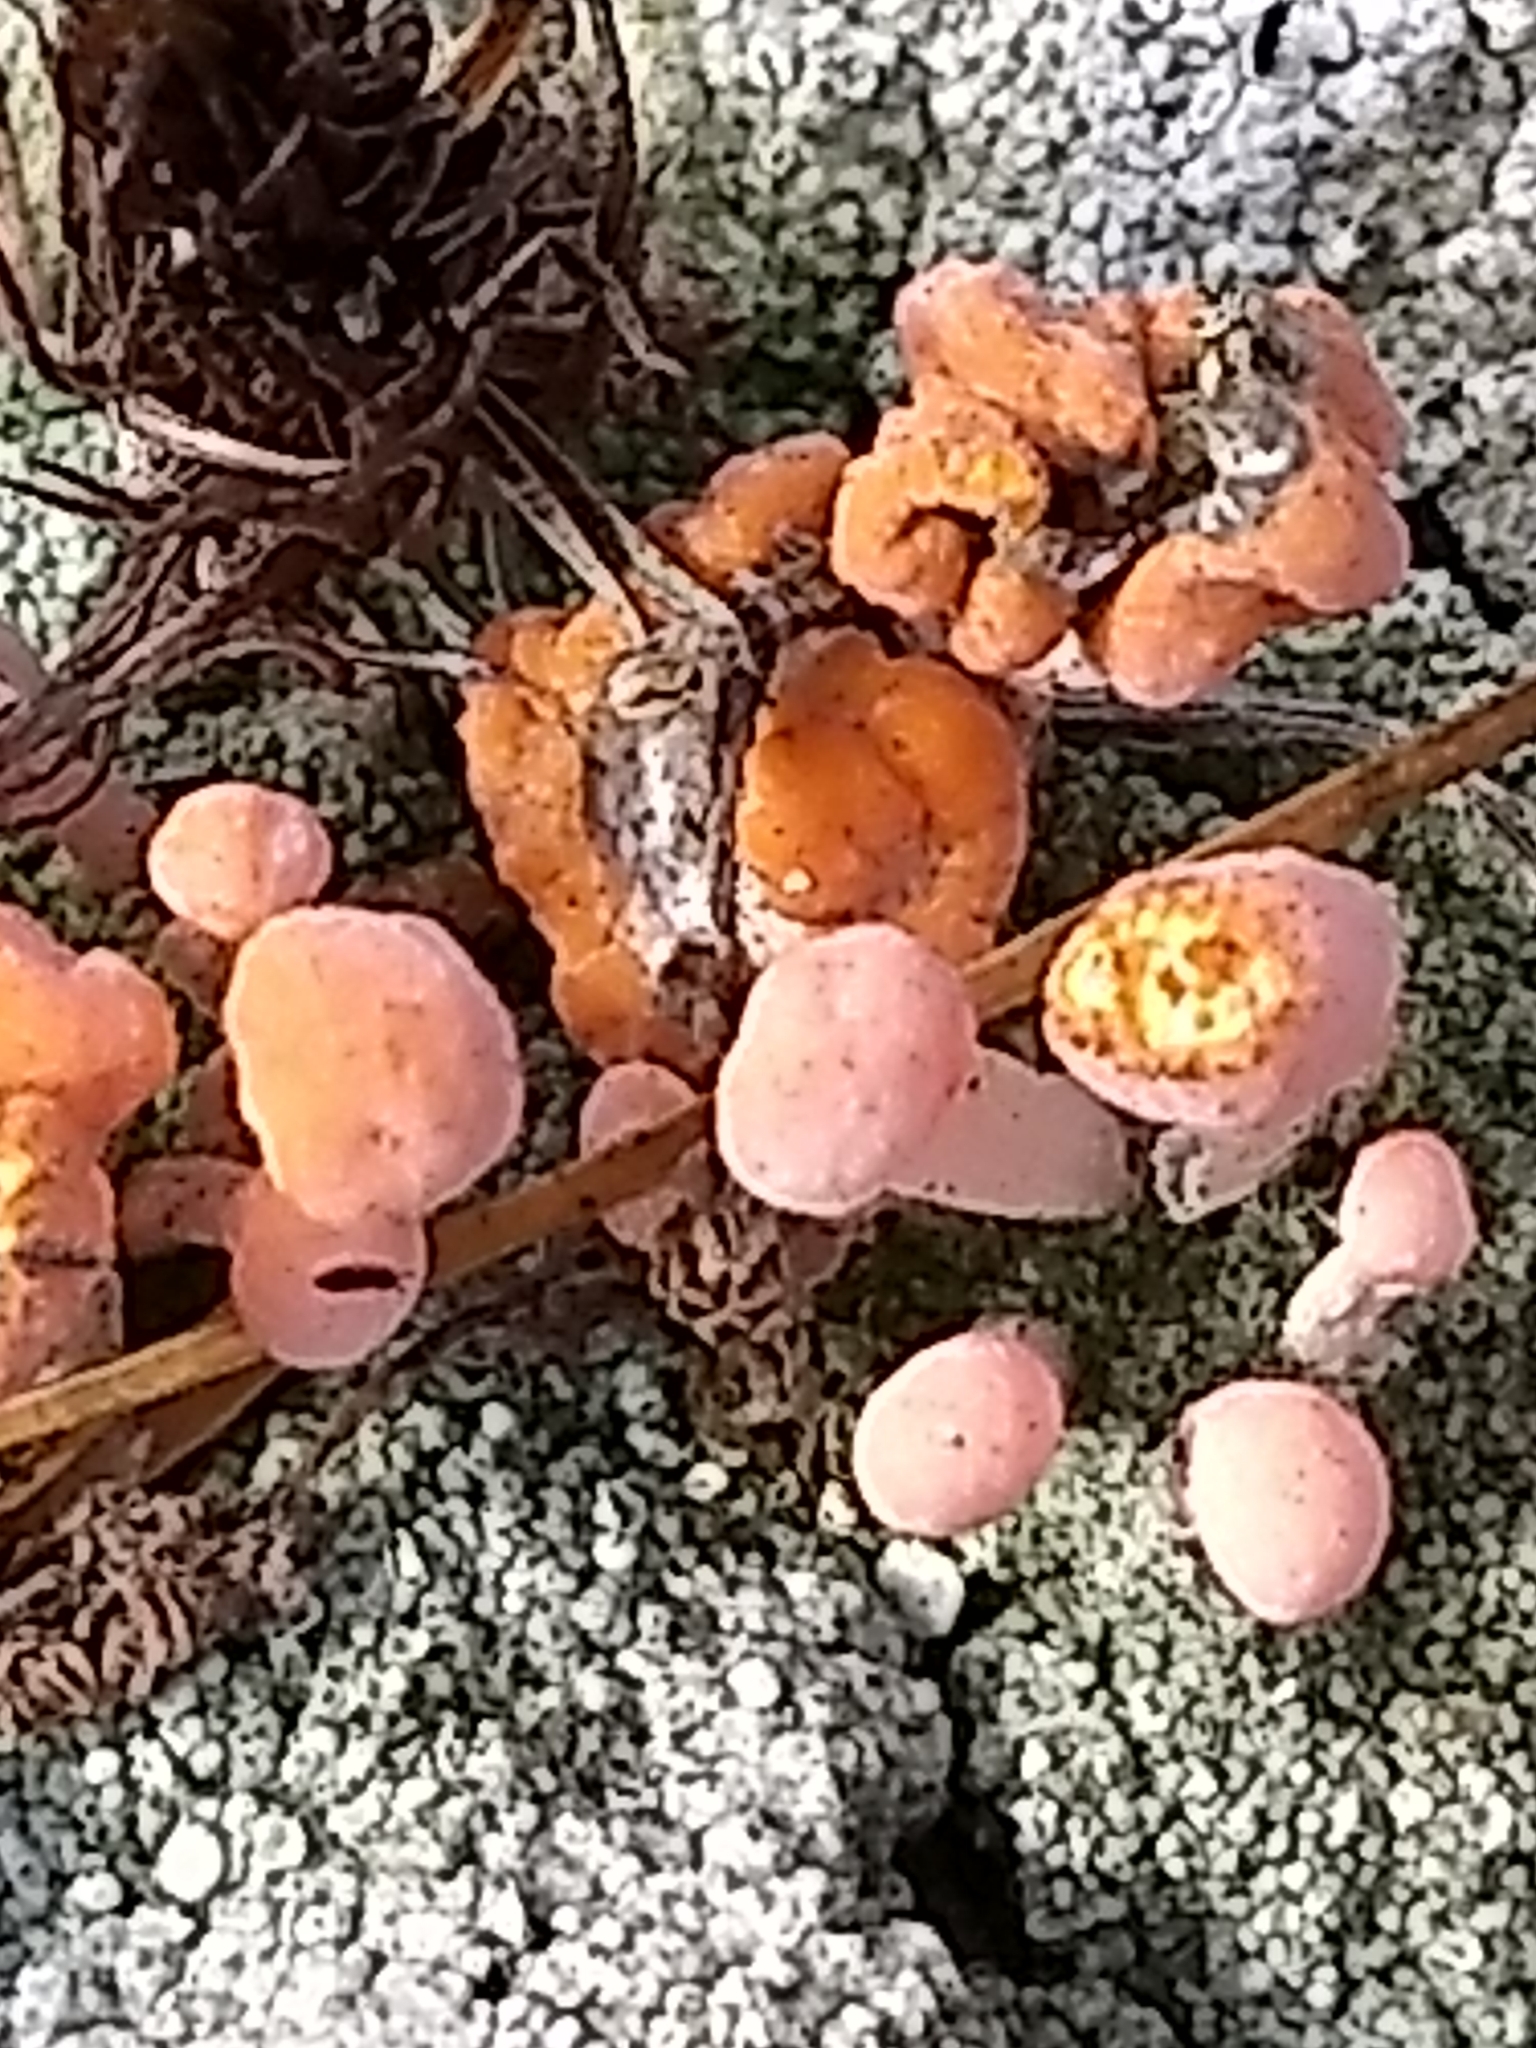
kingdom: Fungi
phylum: Ascomycota
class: Lecanoromycetes
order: Pertusariales
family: Icmadophilaceae
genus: Dibaeis
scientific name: Dibaeis baeomyces
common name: Pink earth lichen
